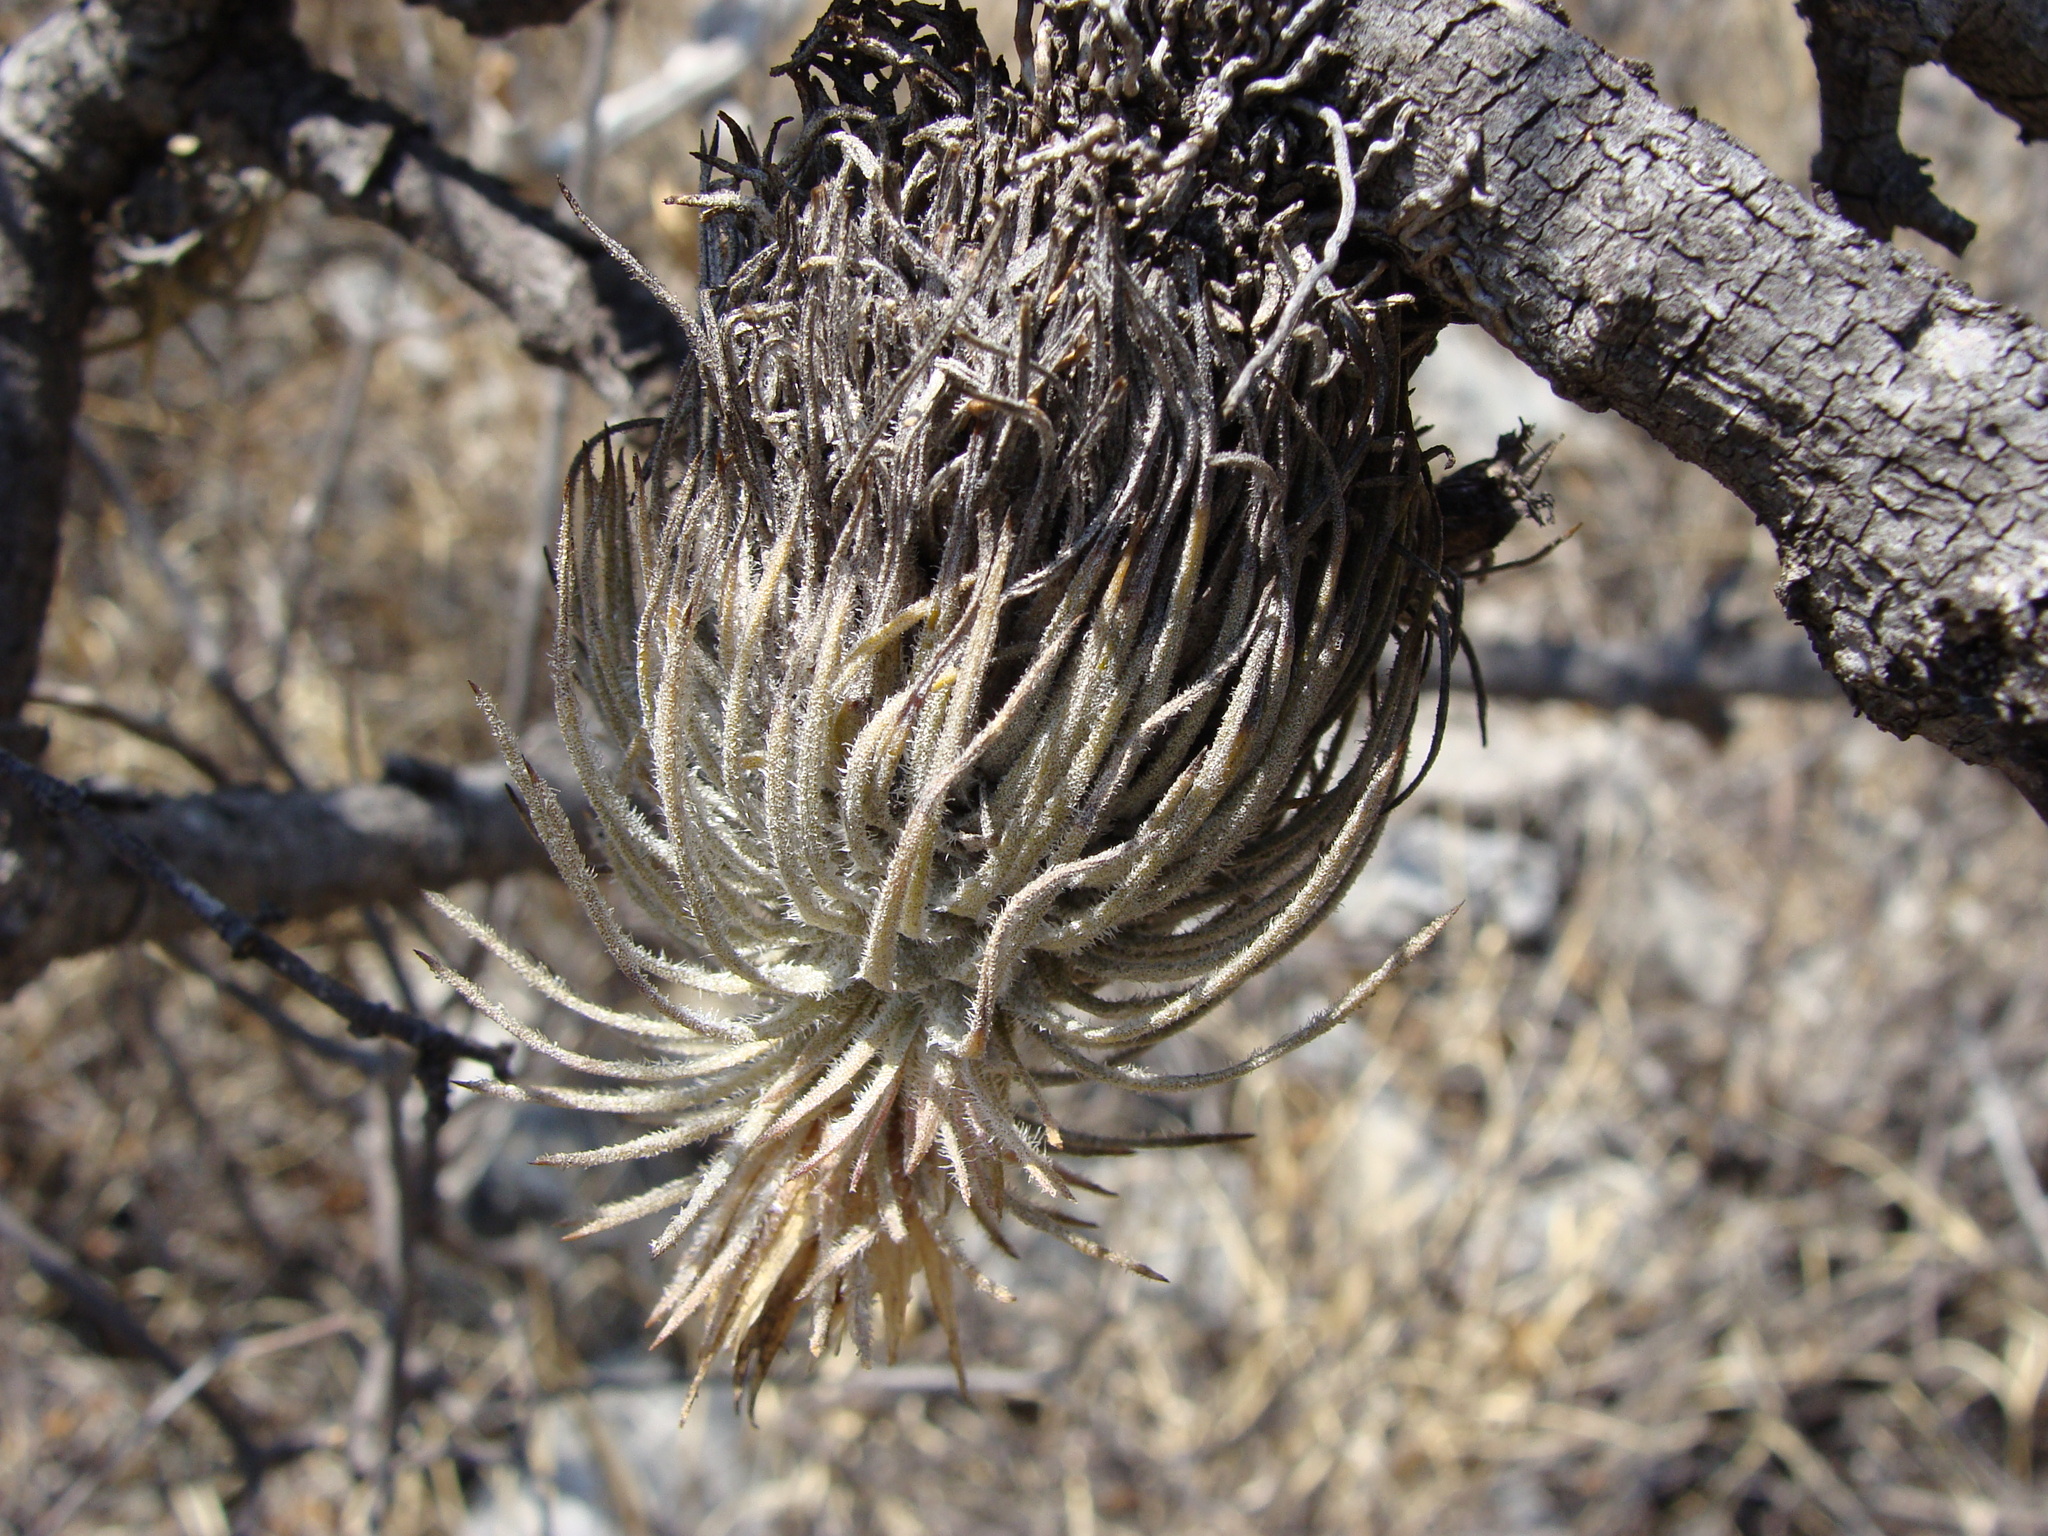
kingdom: Plantae
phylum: Tracheophyta
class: Liliopsida
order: Poales
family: Bromeliaceae
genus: Tillandsia
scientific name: Tillandsia atroviridipetala
